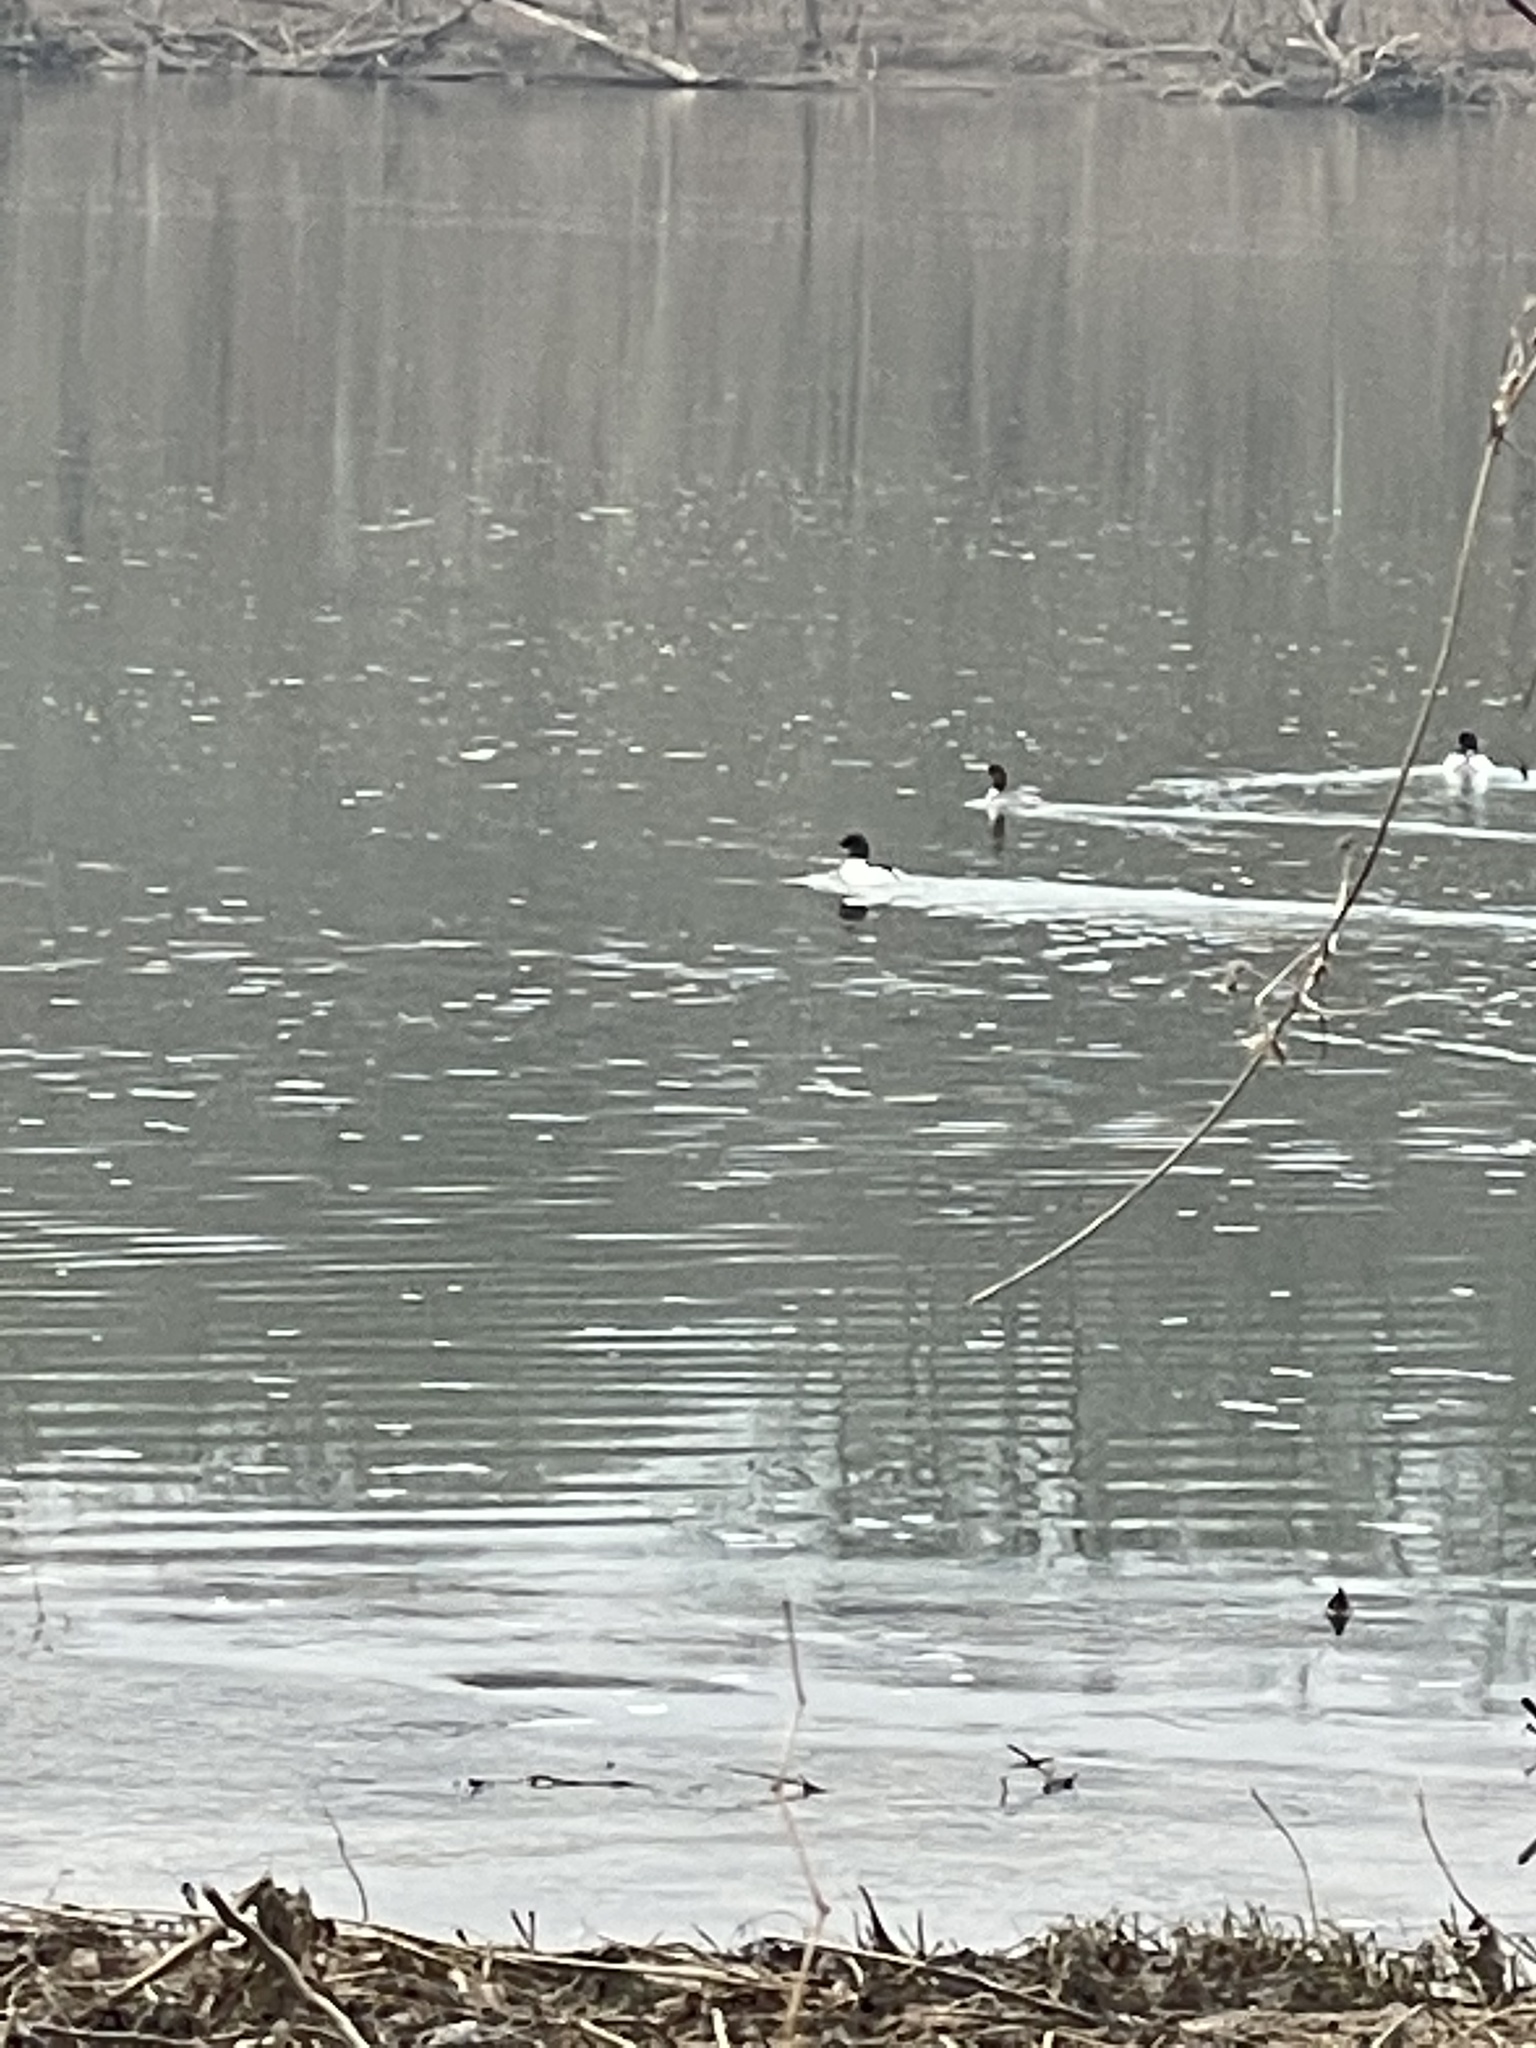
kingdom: Animalia
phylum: Chordata
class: Aves
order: Anseriformes
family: Anatidae
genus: Mergus
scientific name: Mergus merganser
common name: Common merganser
